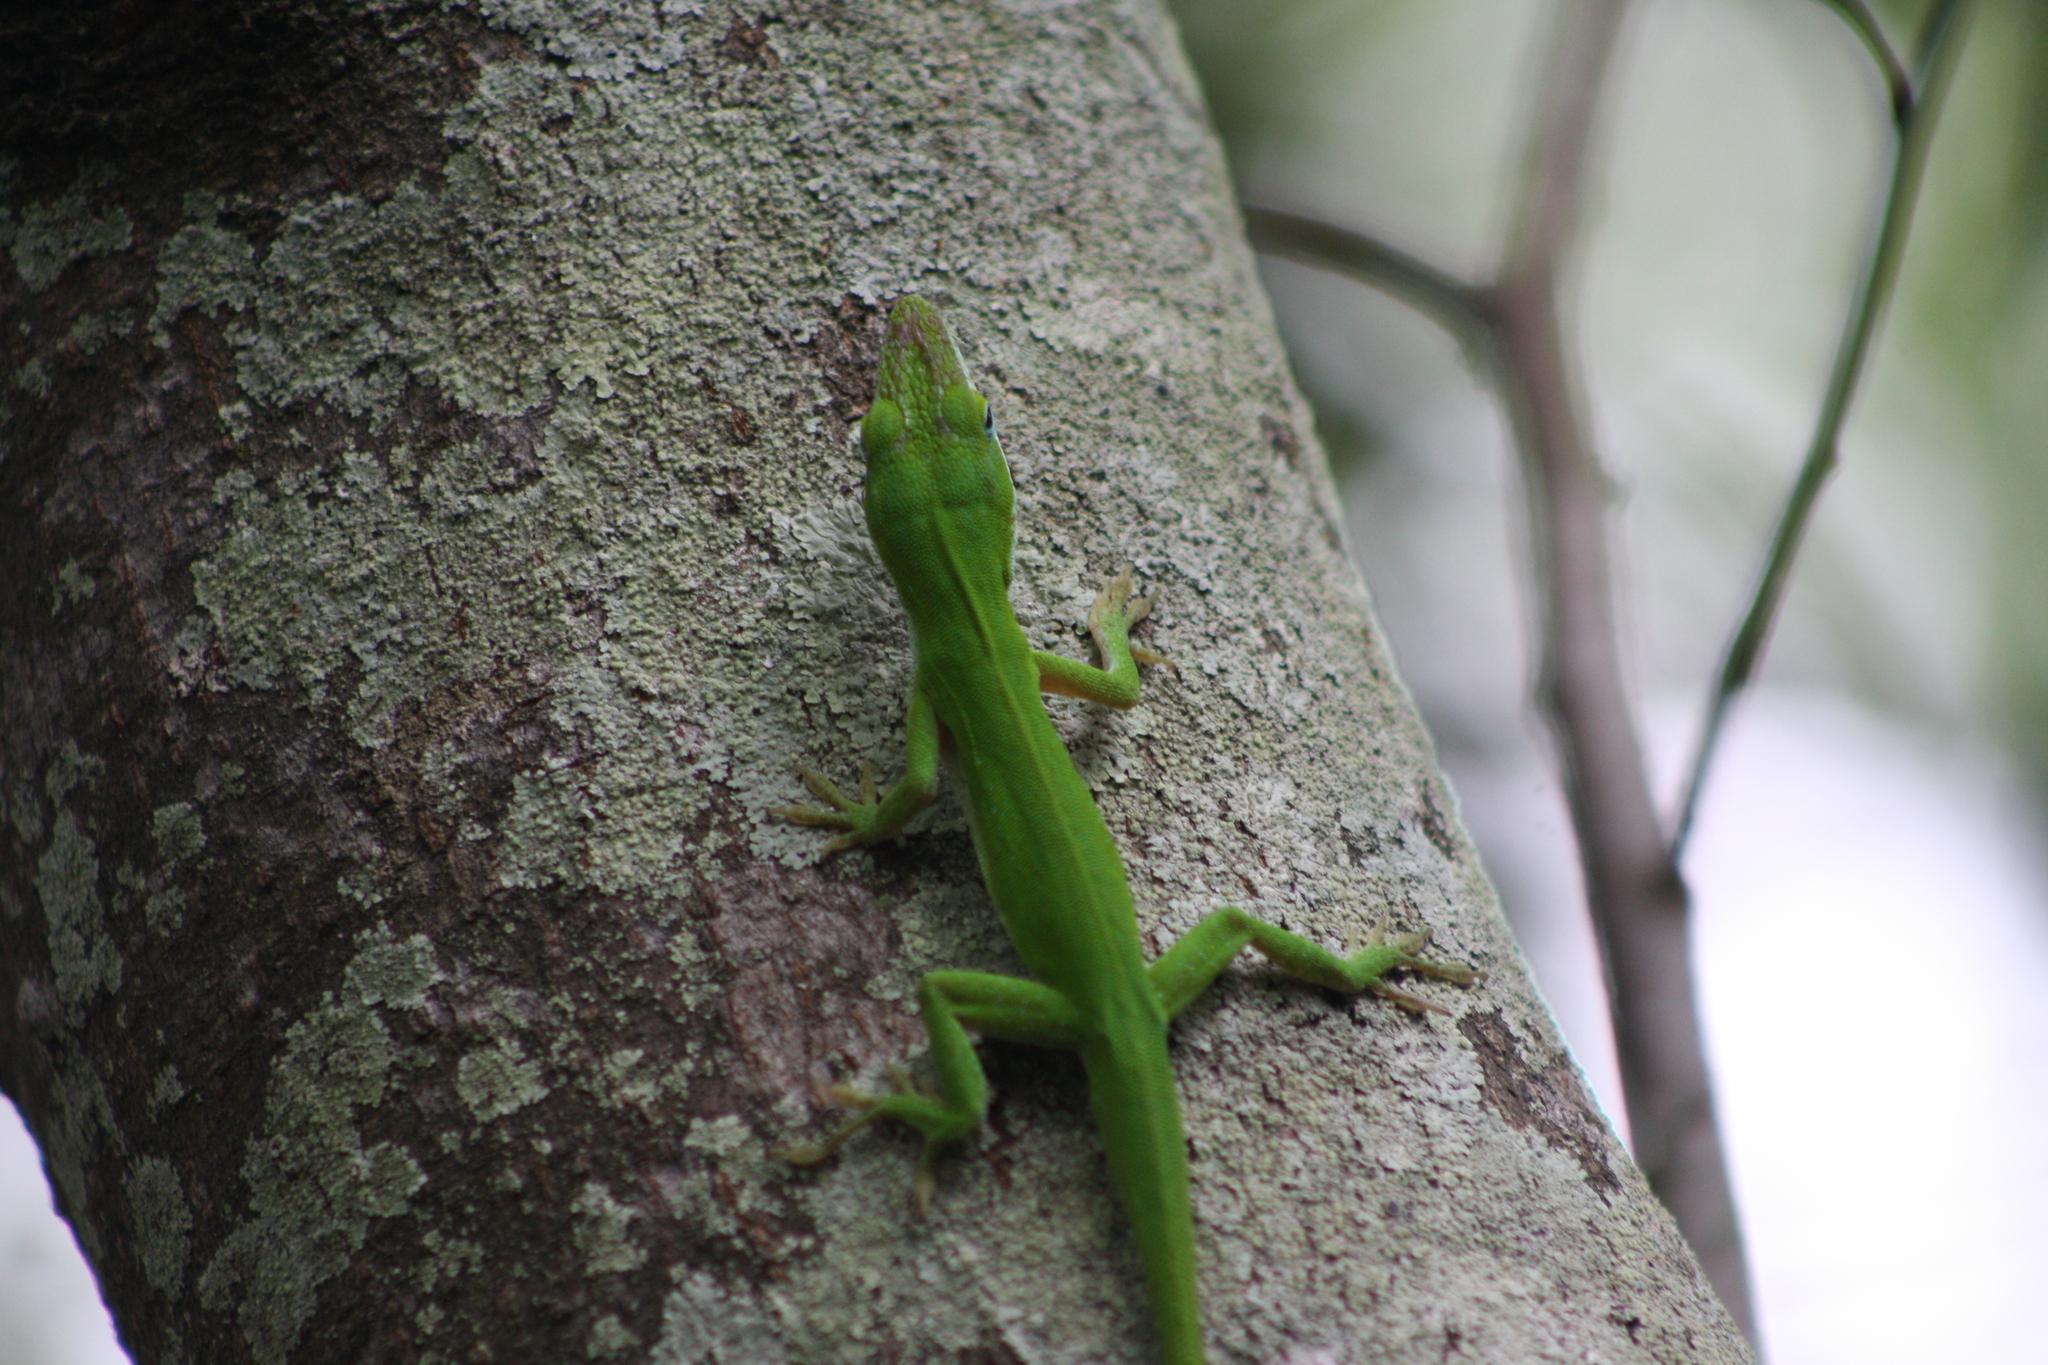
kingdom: Animalia
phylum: Chordata
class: Squamata
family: Dactyloidae
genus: Anolis
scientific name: Anolis carolinensis
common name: Green anole
